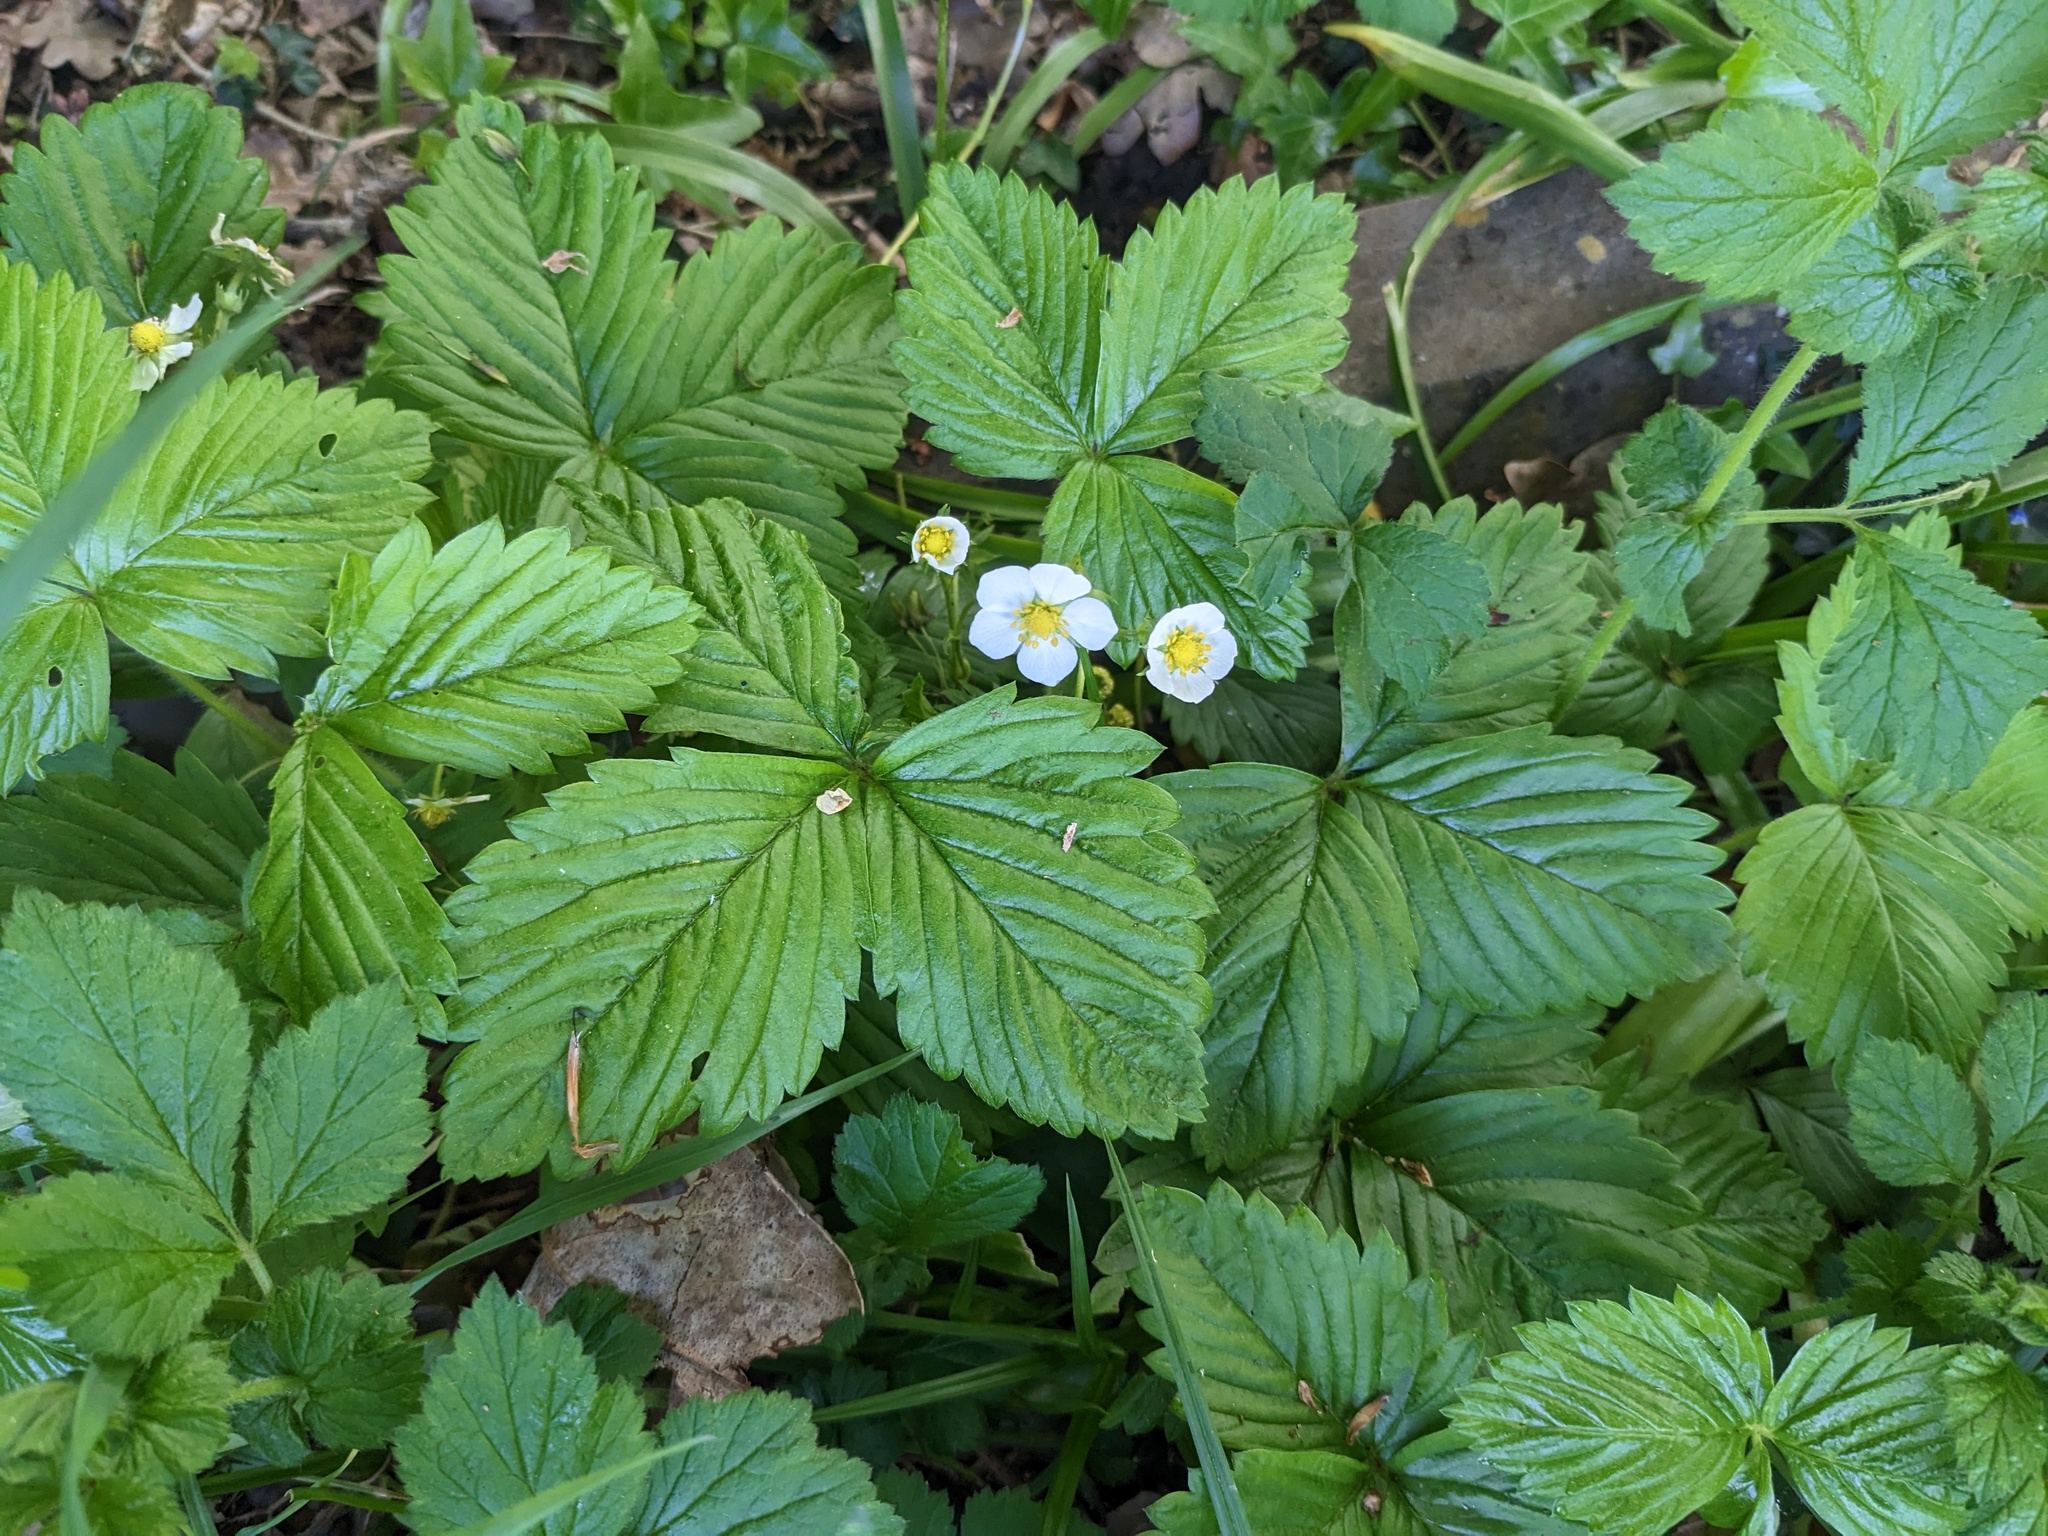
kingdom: Plantae
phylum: Tracheophyta
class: Magnoliopsida
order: Rosales
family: Rosaceae
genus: Fragaria
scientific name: Fragaria vesca
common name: Wild strawberry
